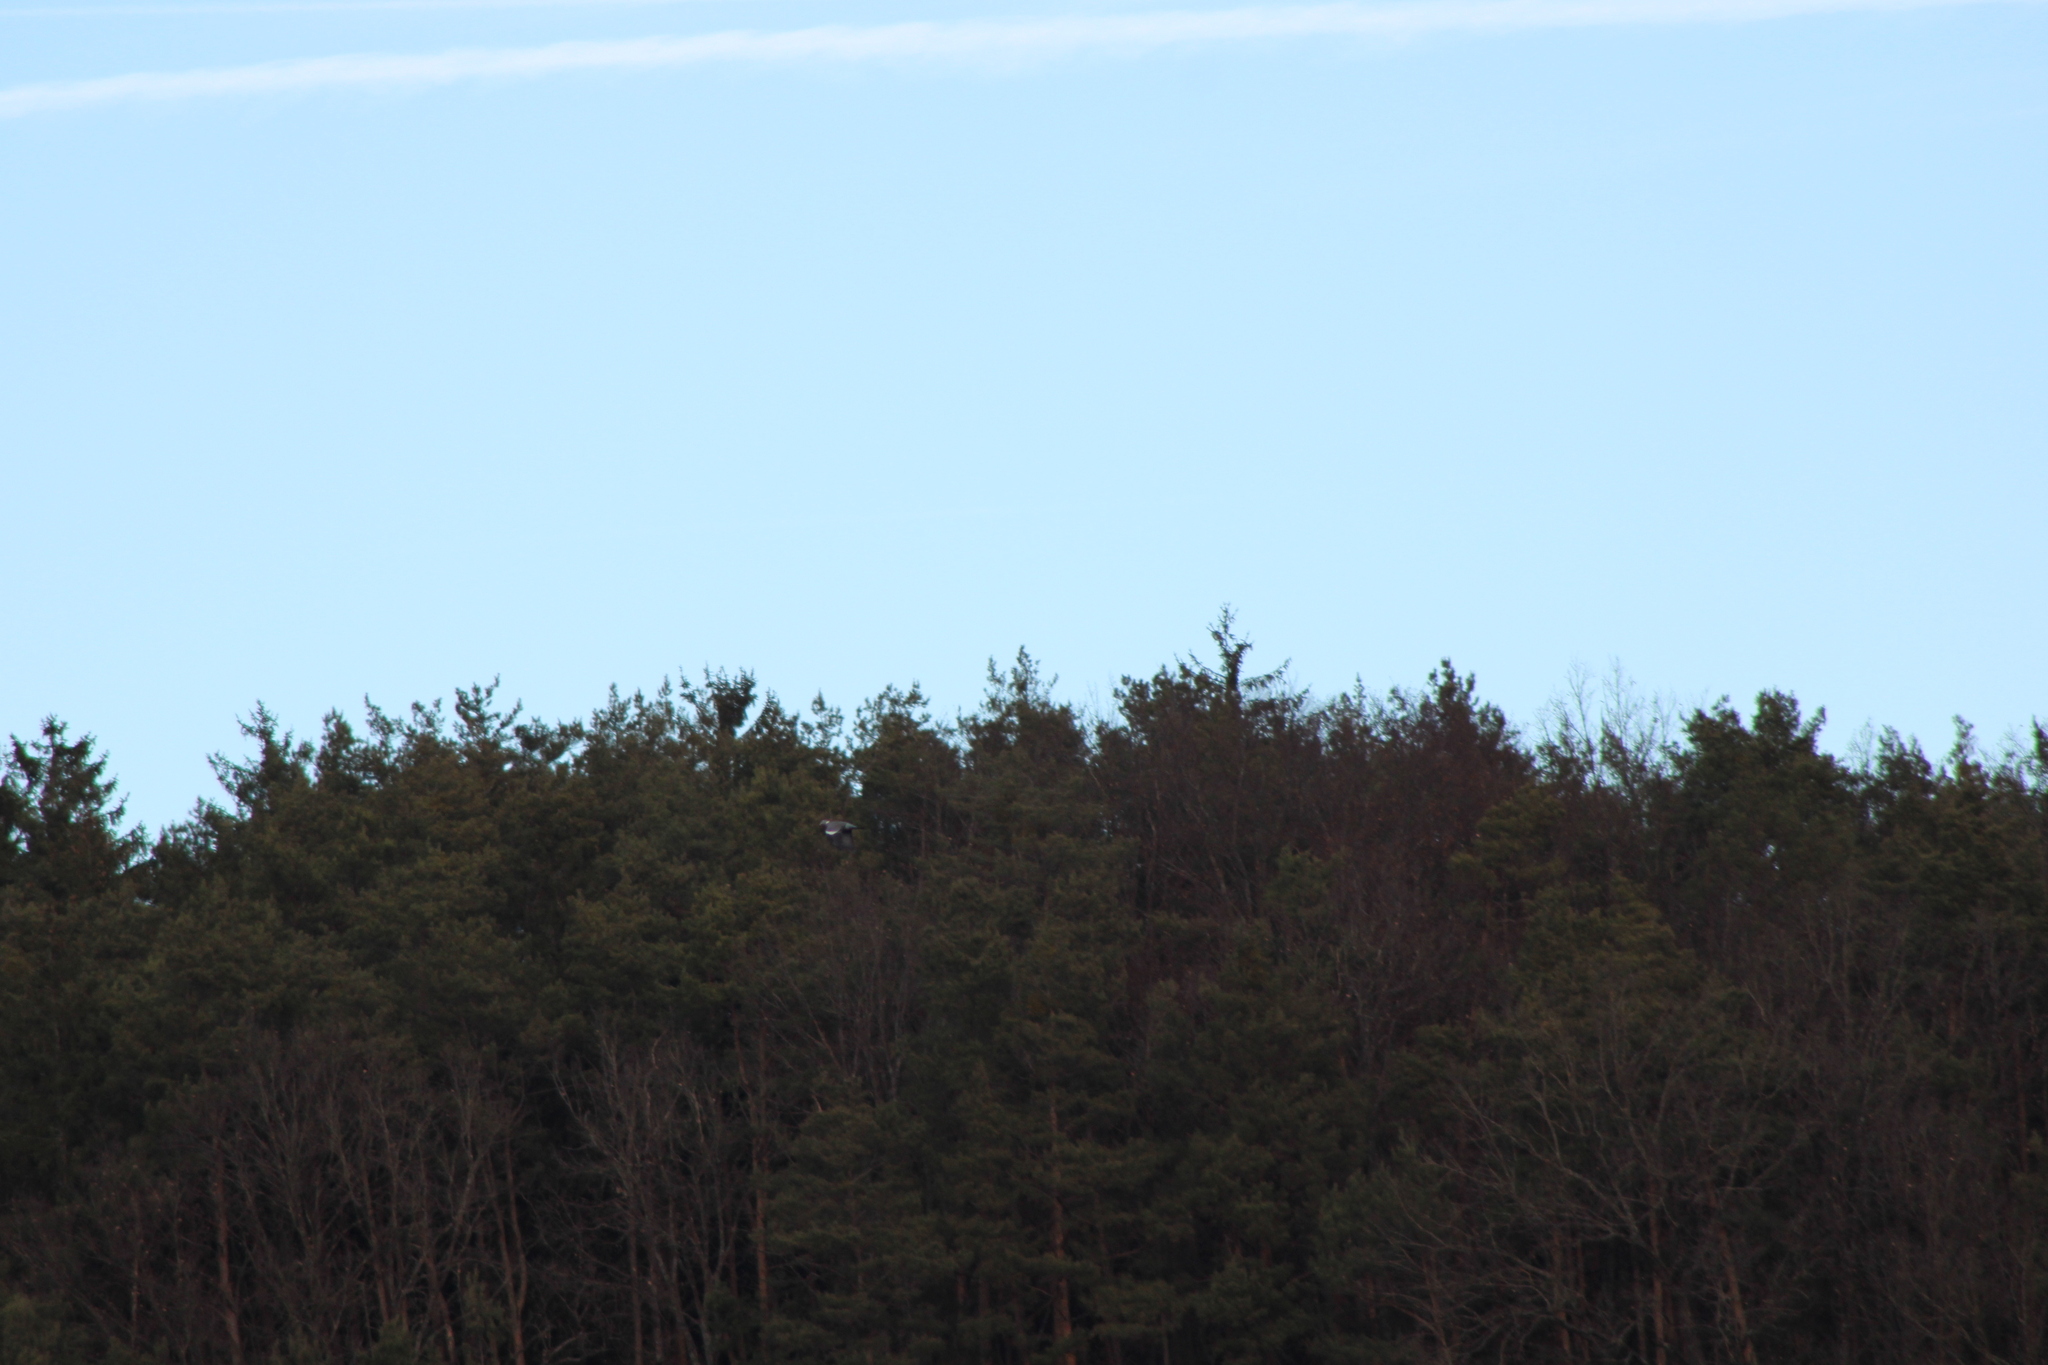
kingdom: Animalia
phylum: Chordata
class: Aves
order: Columbiformes
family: Columbidae
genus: Columba
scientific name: Columba palumbus
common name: Common wood pigeon
